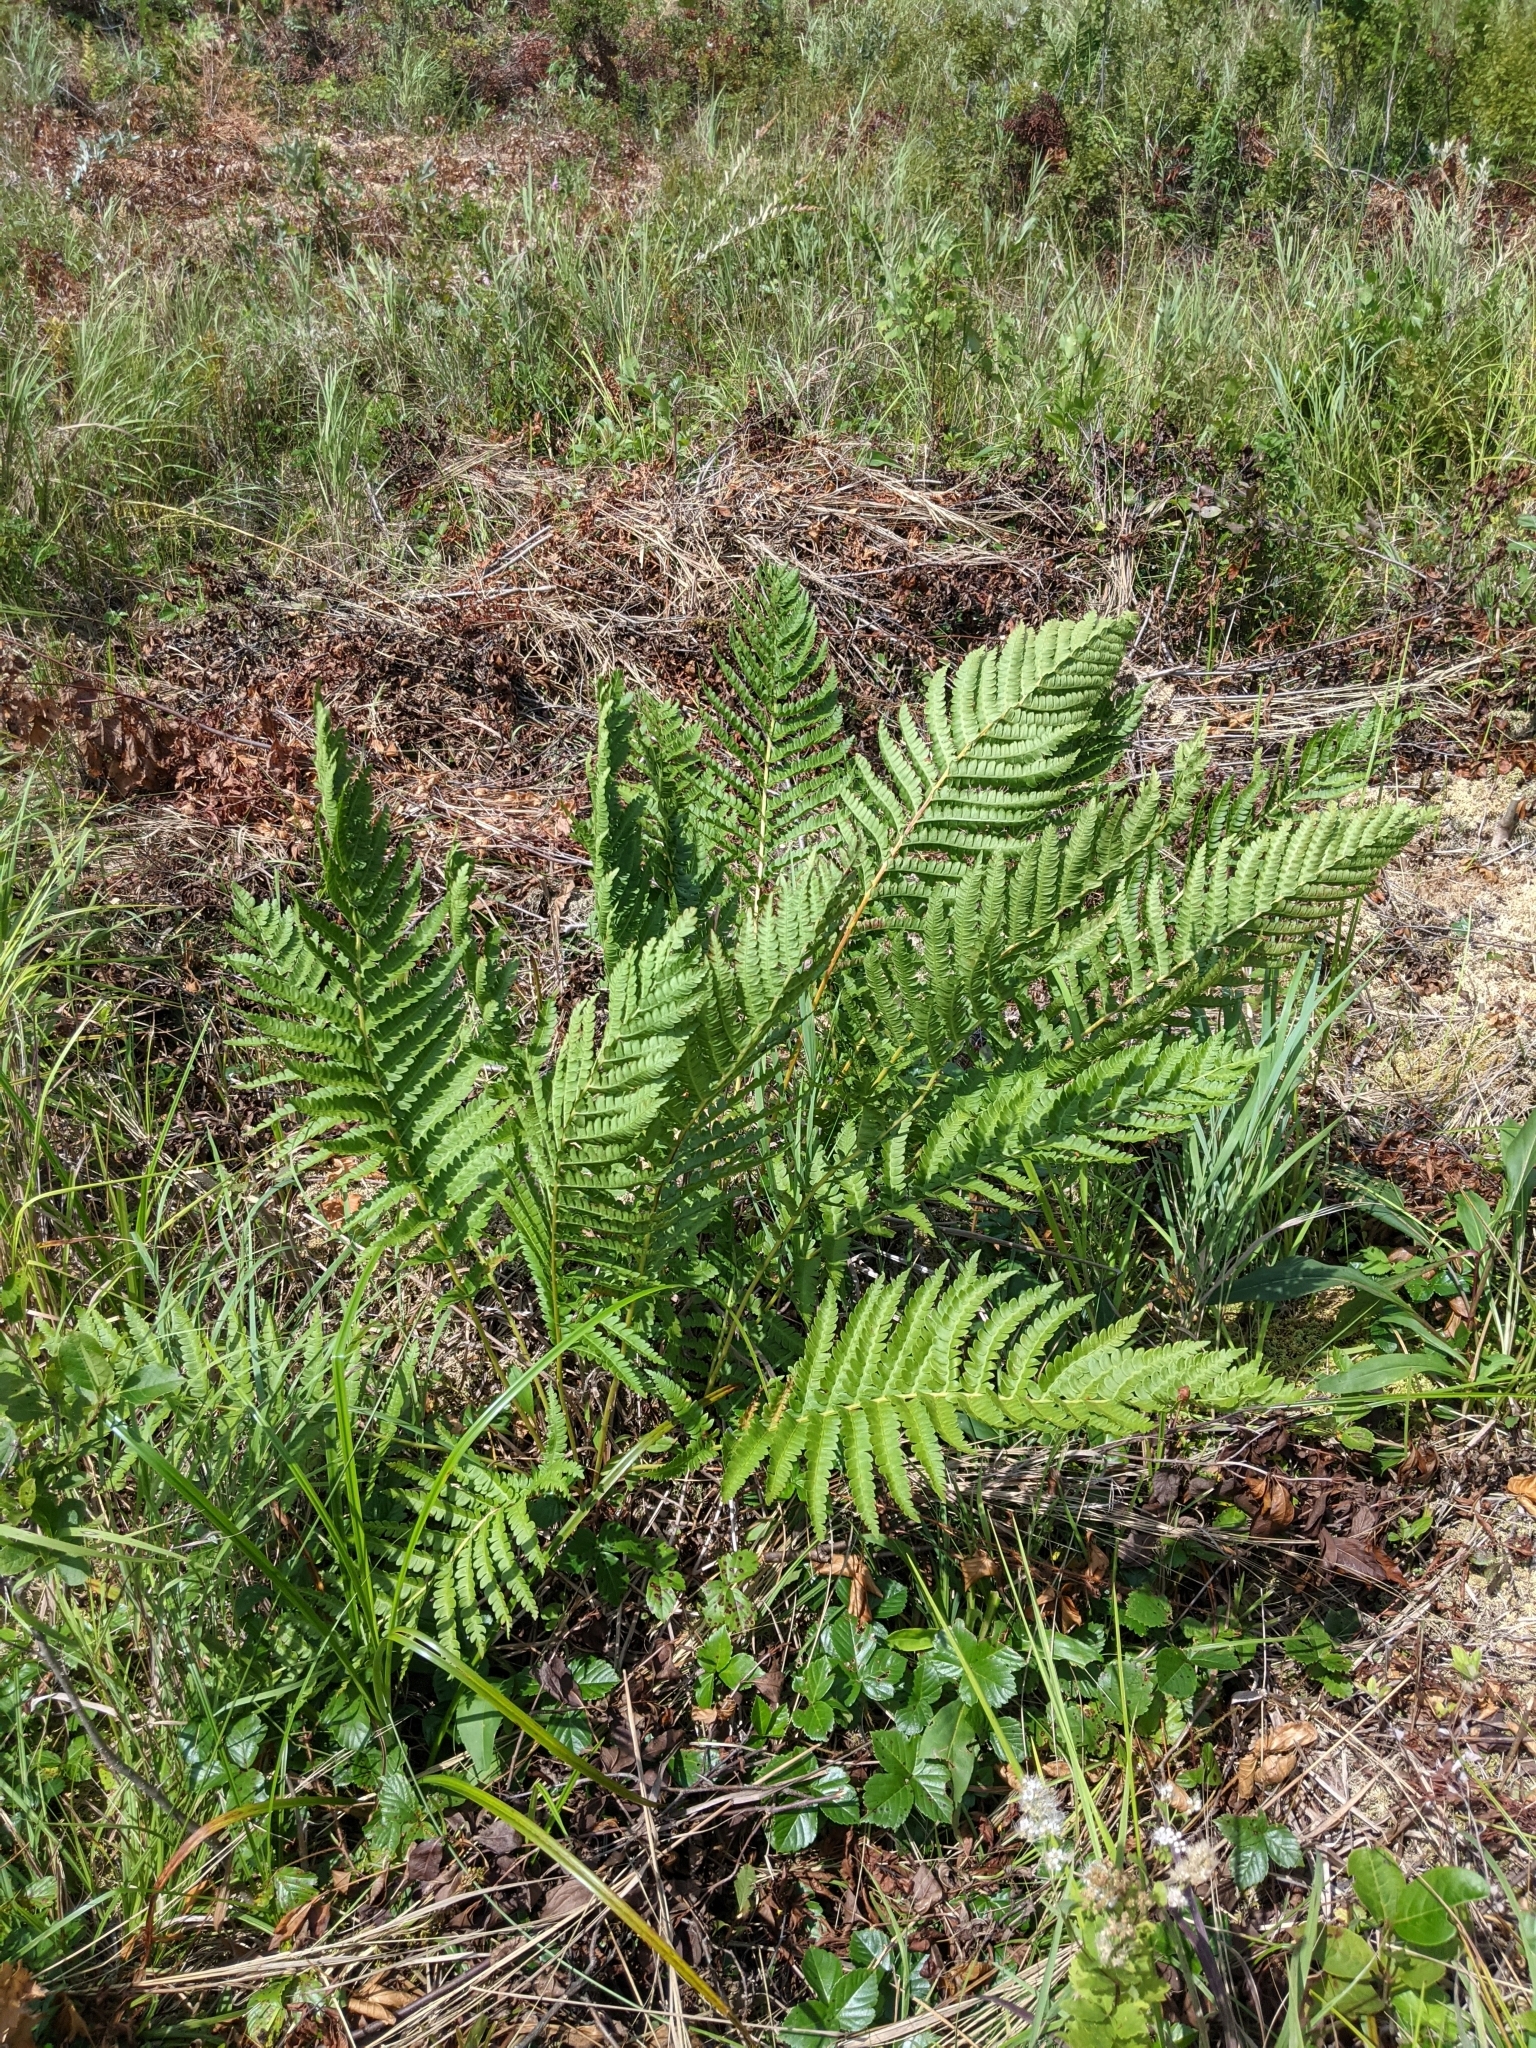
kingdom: Plantae
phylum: Tracheophyta
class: Polypodiopsida
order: Osmundales
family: Osmundaceae
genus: Osmundastrum
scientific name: Osmundastrum cinnamomeum
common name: Cinnamon fern
